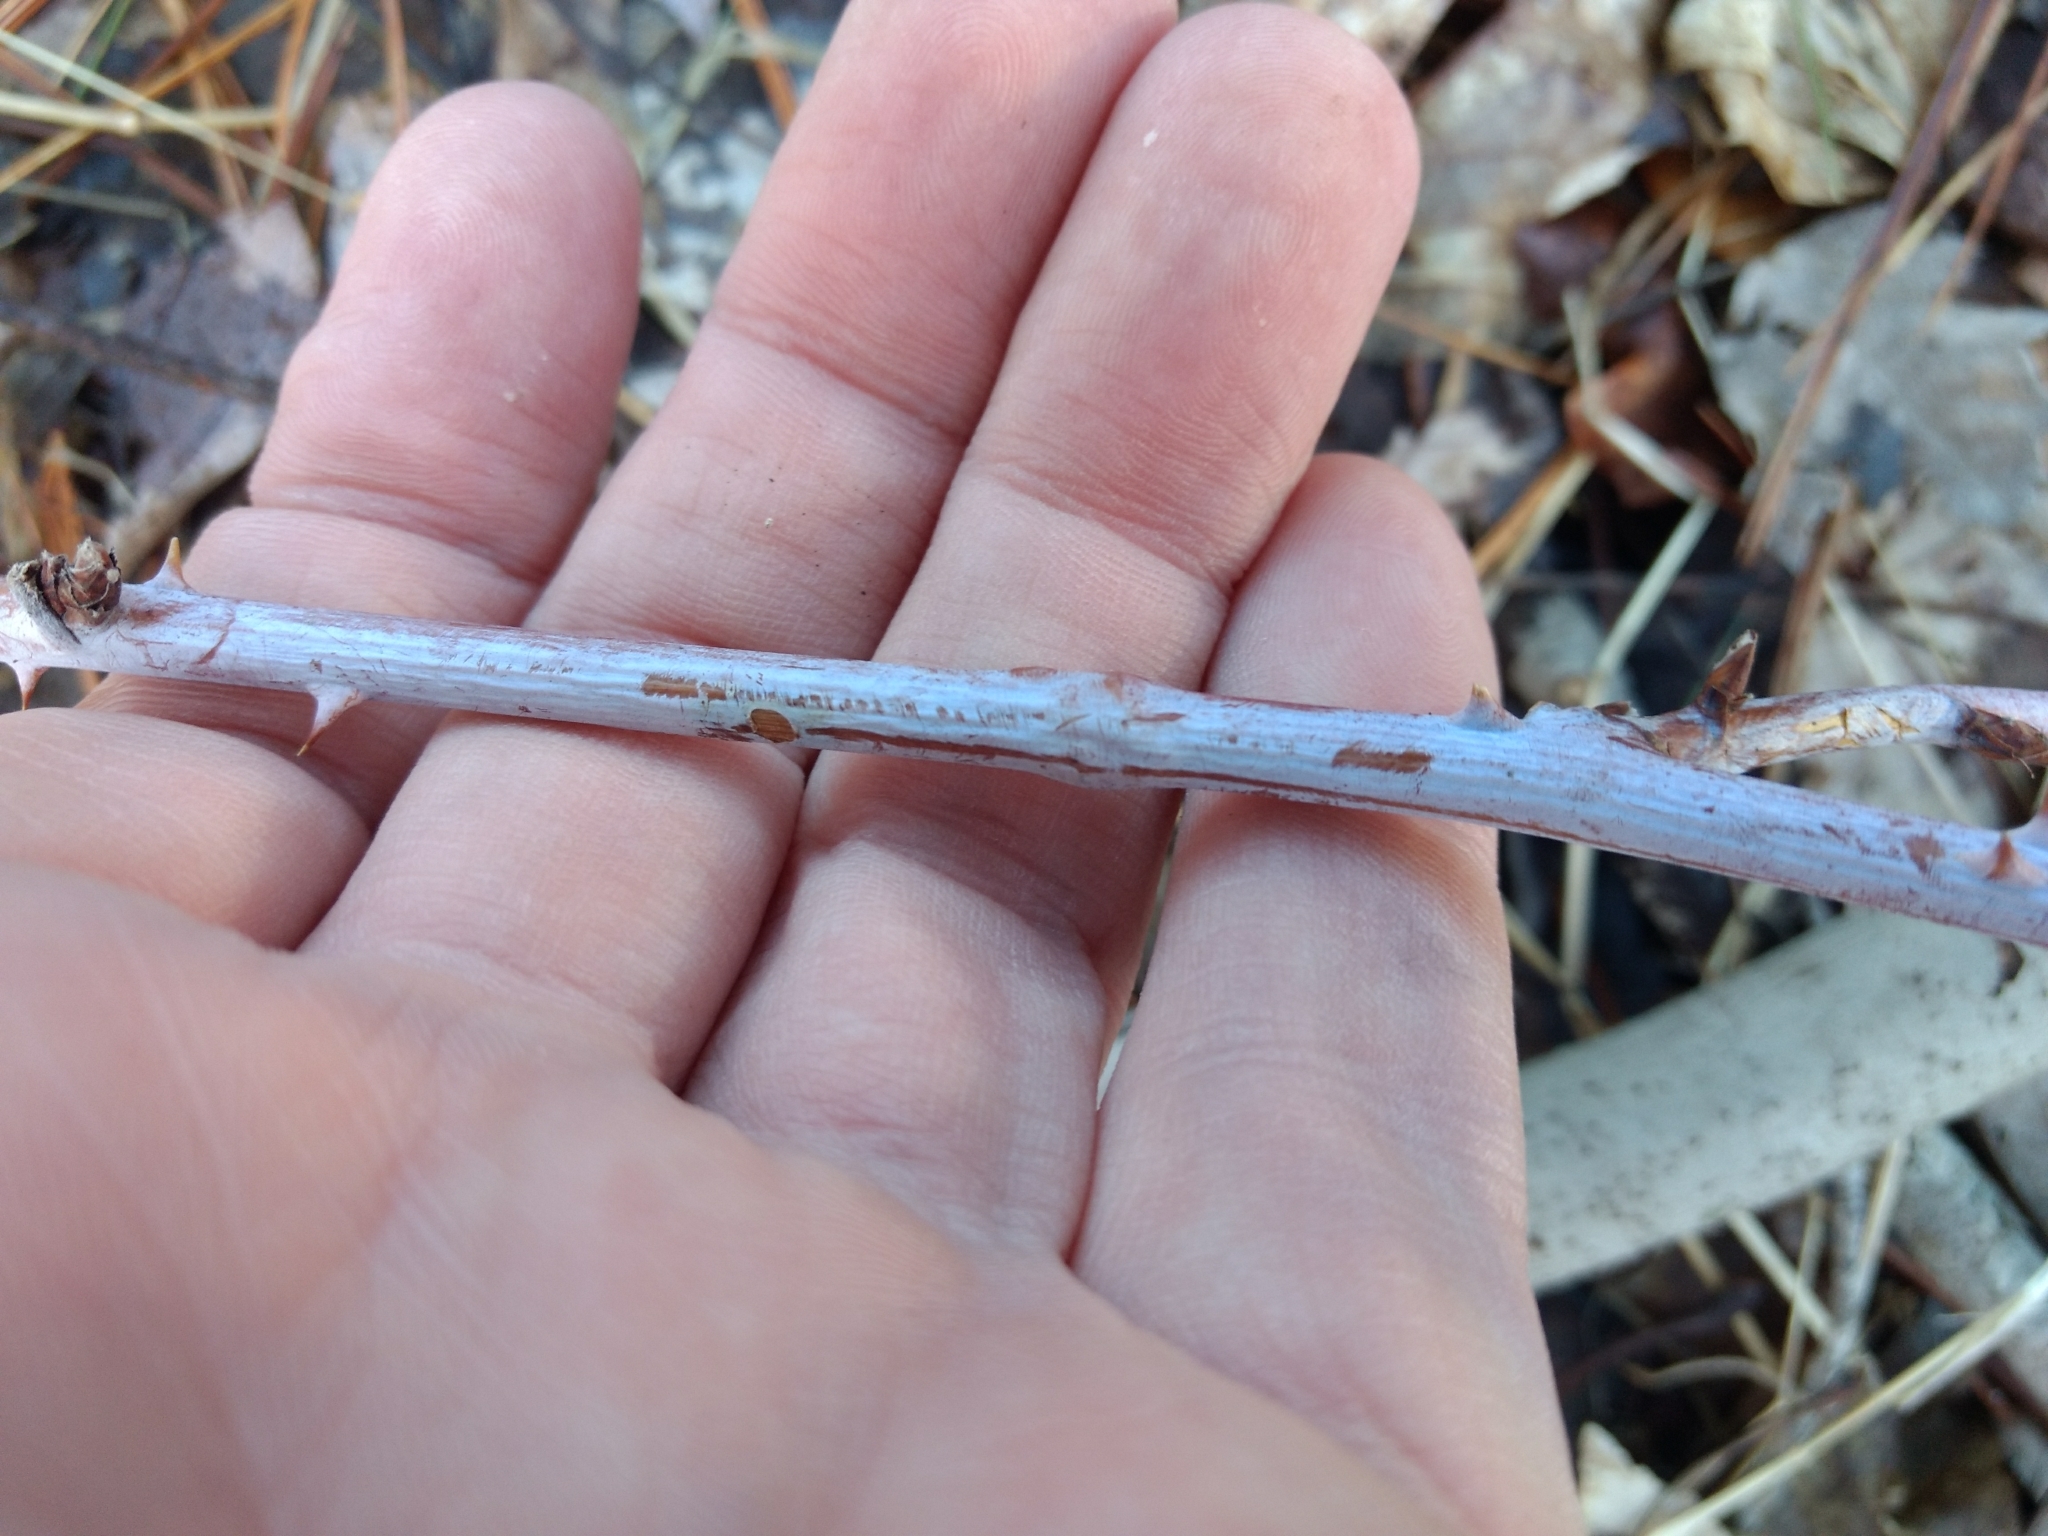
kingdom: Plantae
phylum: Tracheophyta
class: Magnoliopsida
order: Rosales
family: Rosaceae
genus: Rubus
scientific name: Rubus occidentalis
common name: Black raspberry
